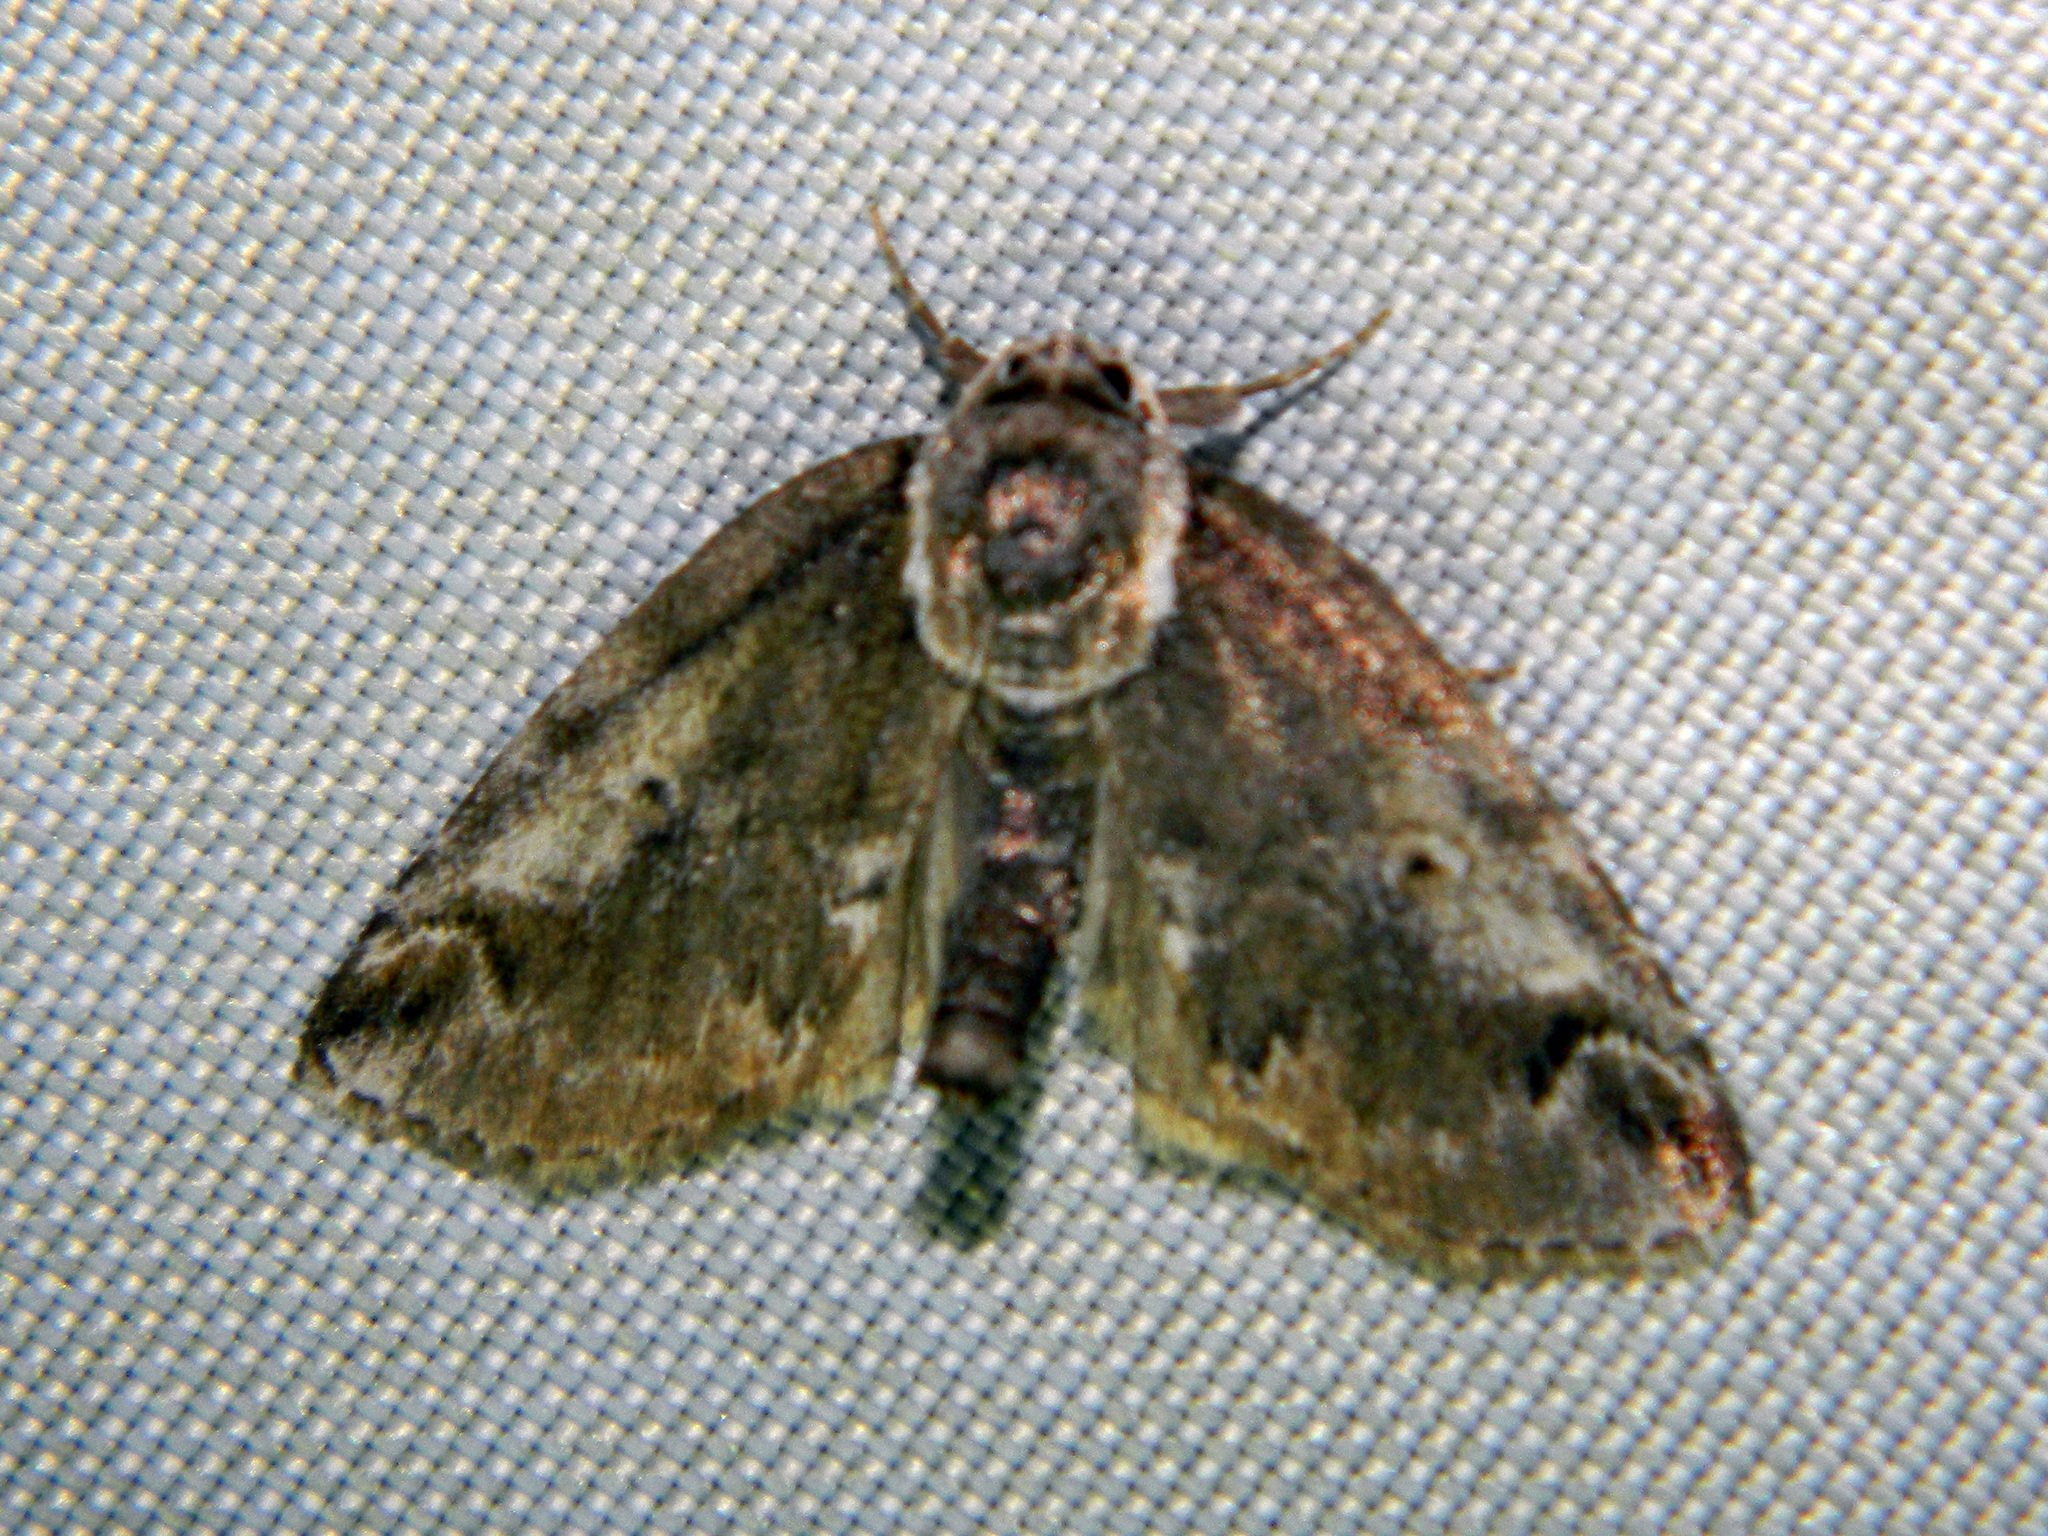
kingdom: Animalia
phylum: Arthropoda
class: Insecta
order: Lepidoptera
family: Nolidae
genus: Baileya
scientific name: Baileya ophthalmica
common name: Eyed baileya moth
